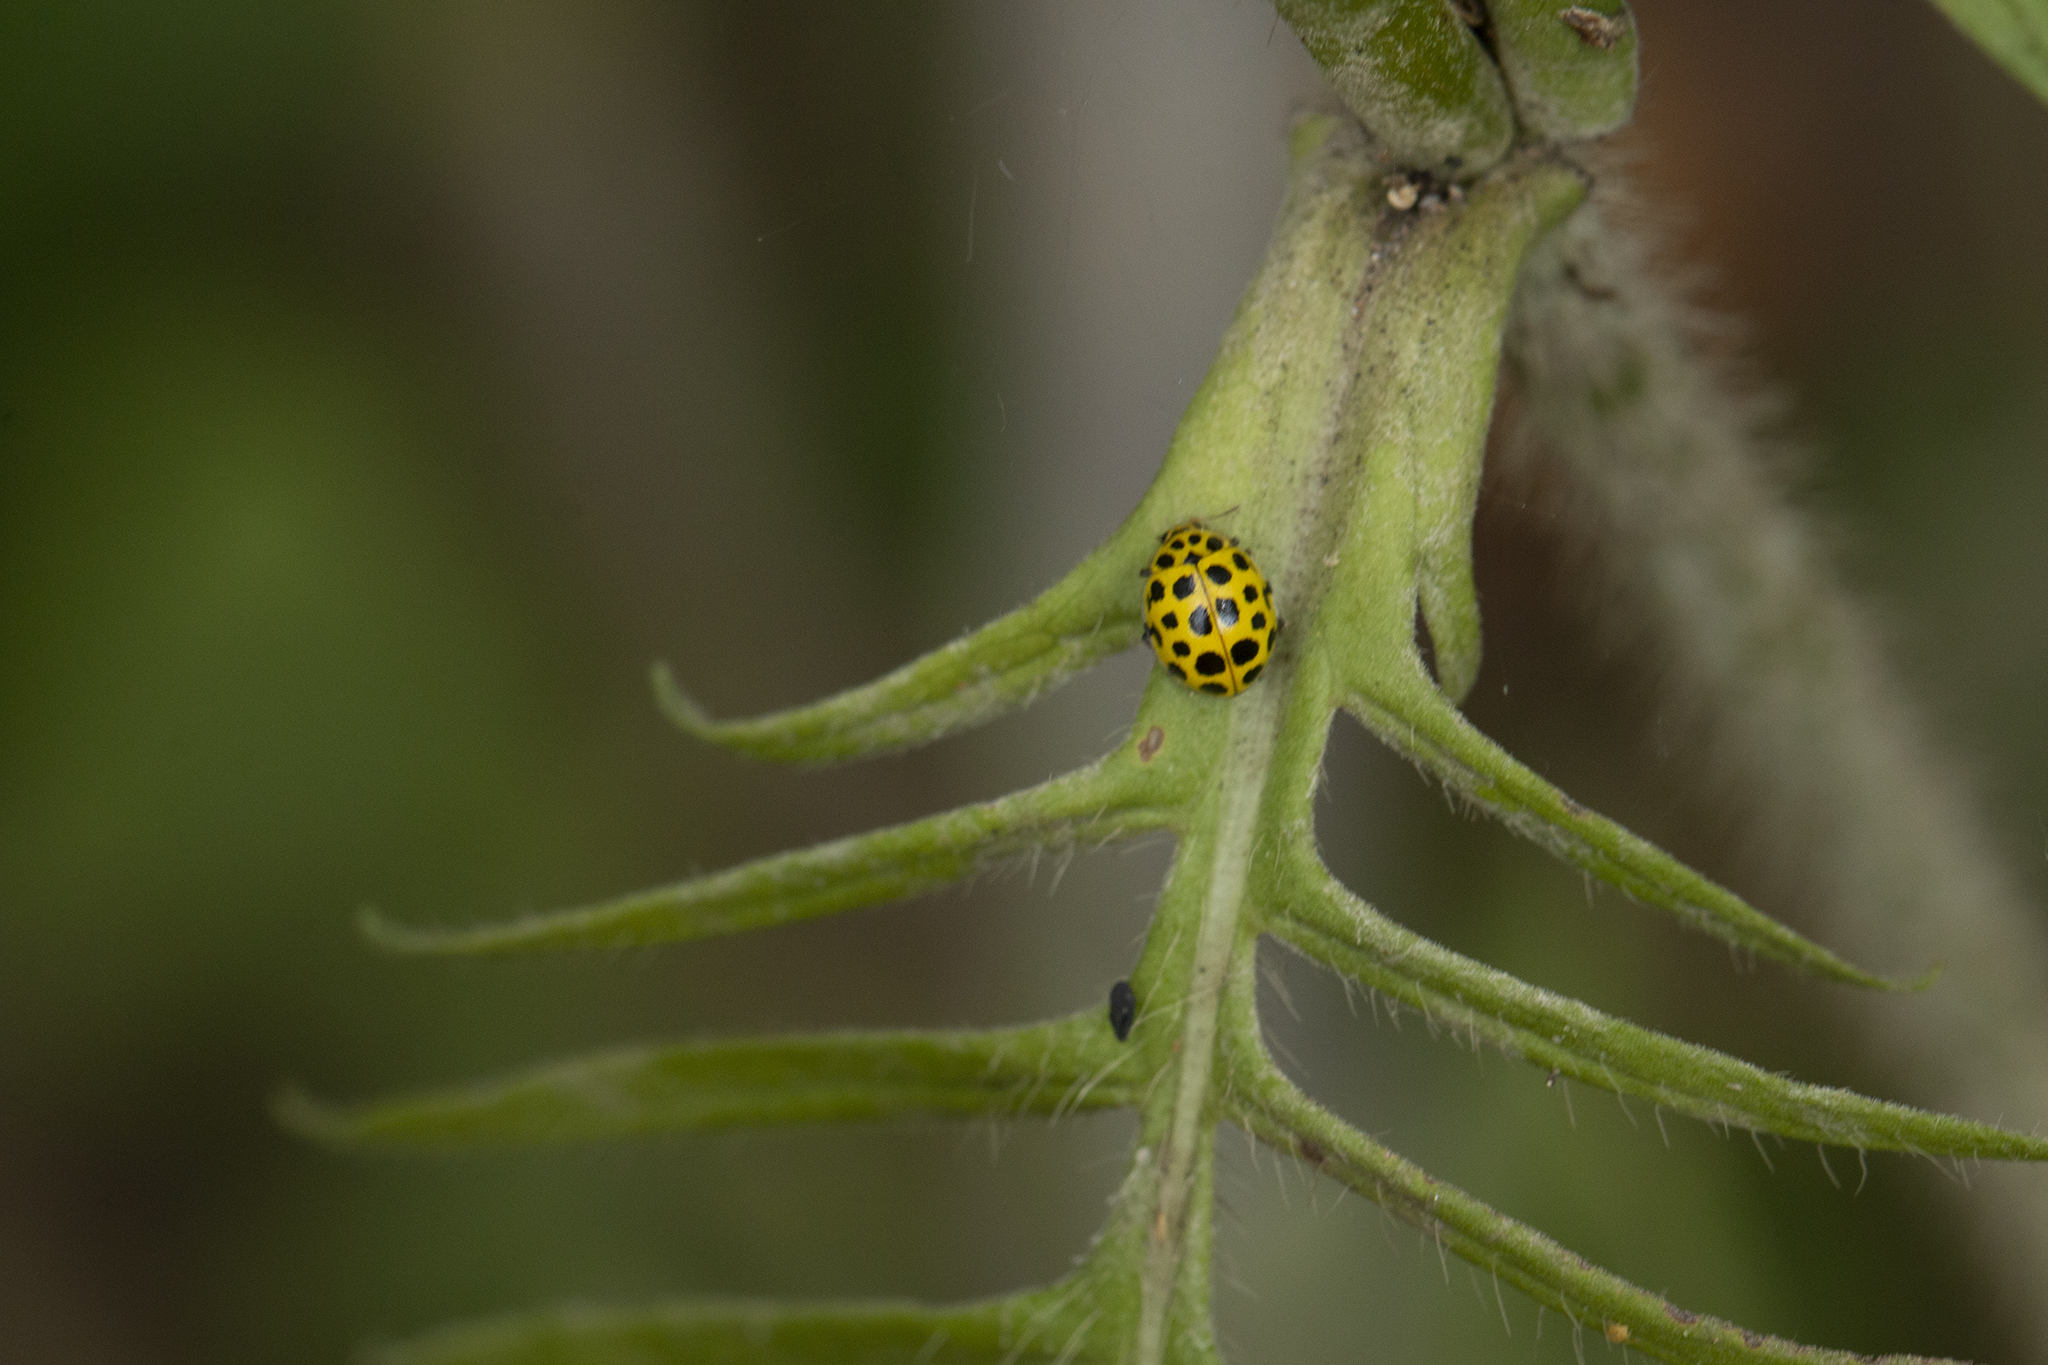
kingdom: Animalia
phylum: Arthropoda
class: Insecta
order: Coleoptera
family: Coccinellidae
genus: Psyllobora
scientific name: Psyllobora vigintiduopunctata
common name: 22-spot ladybird
